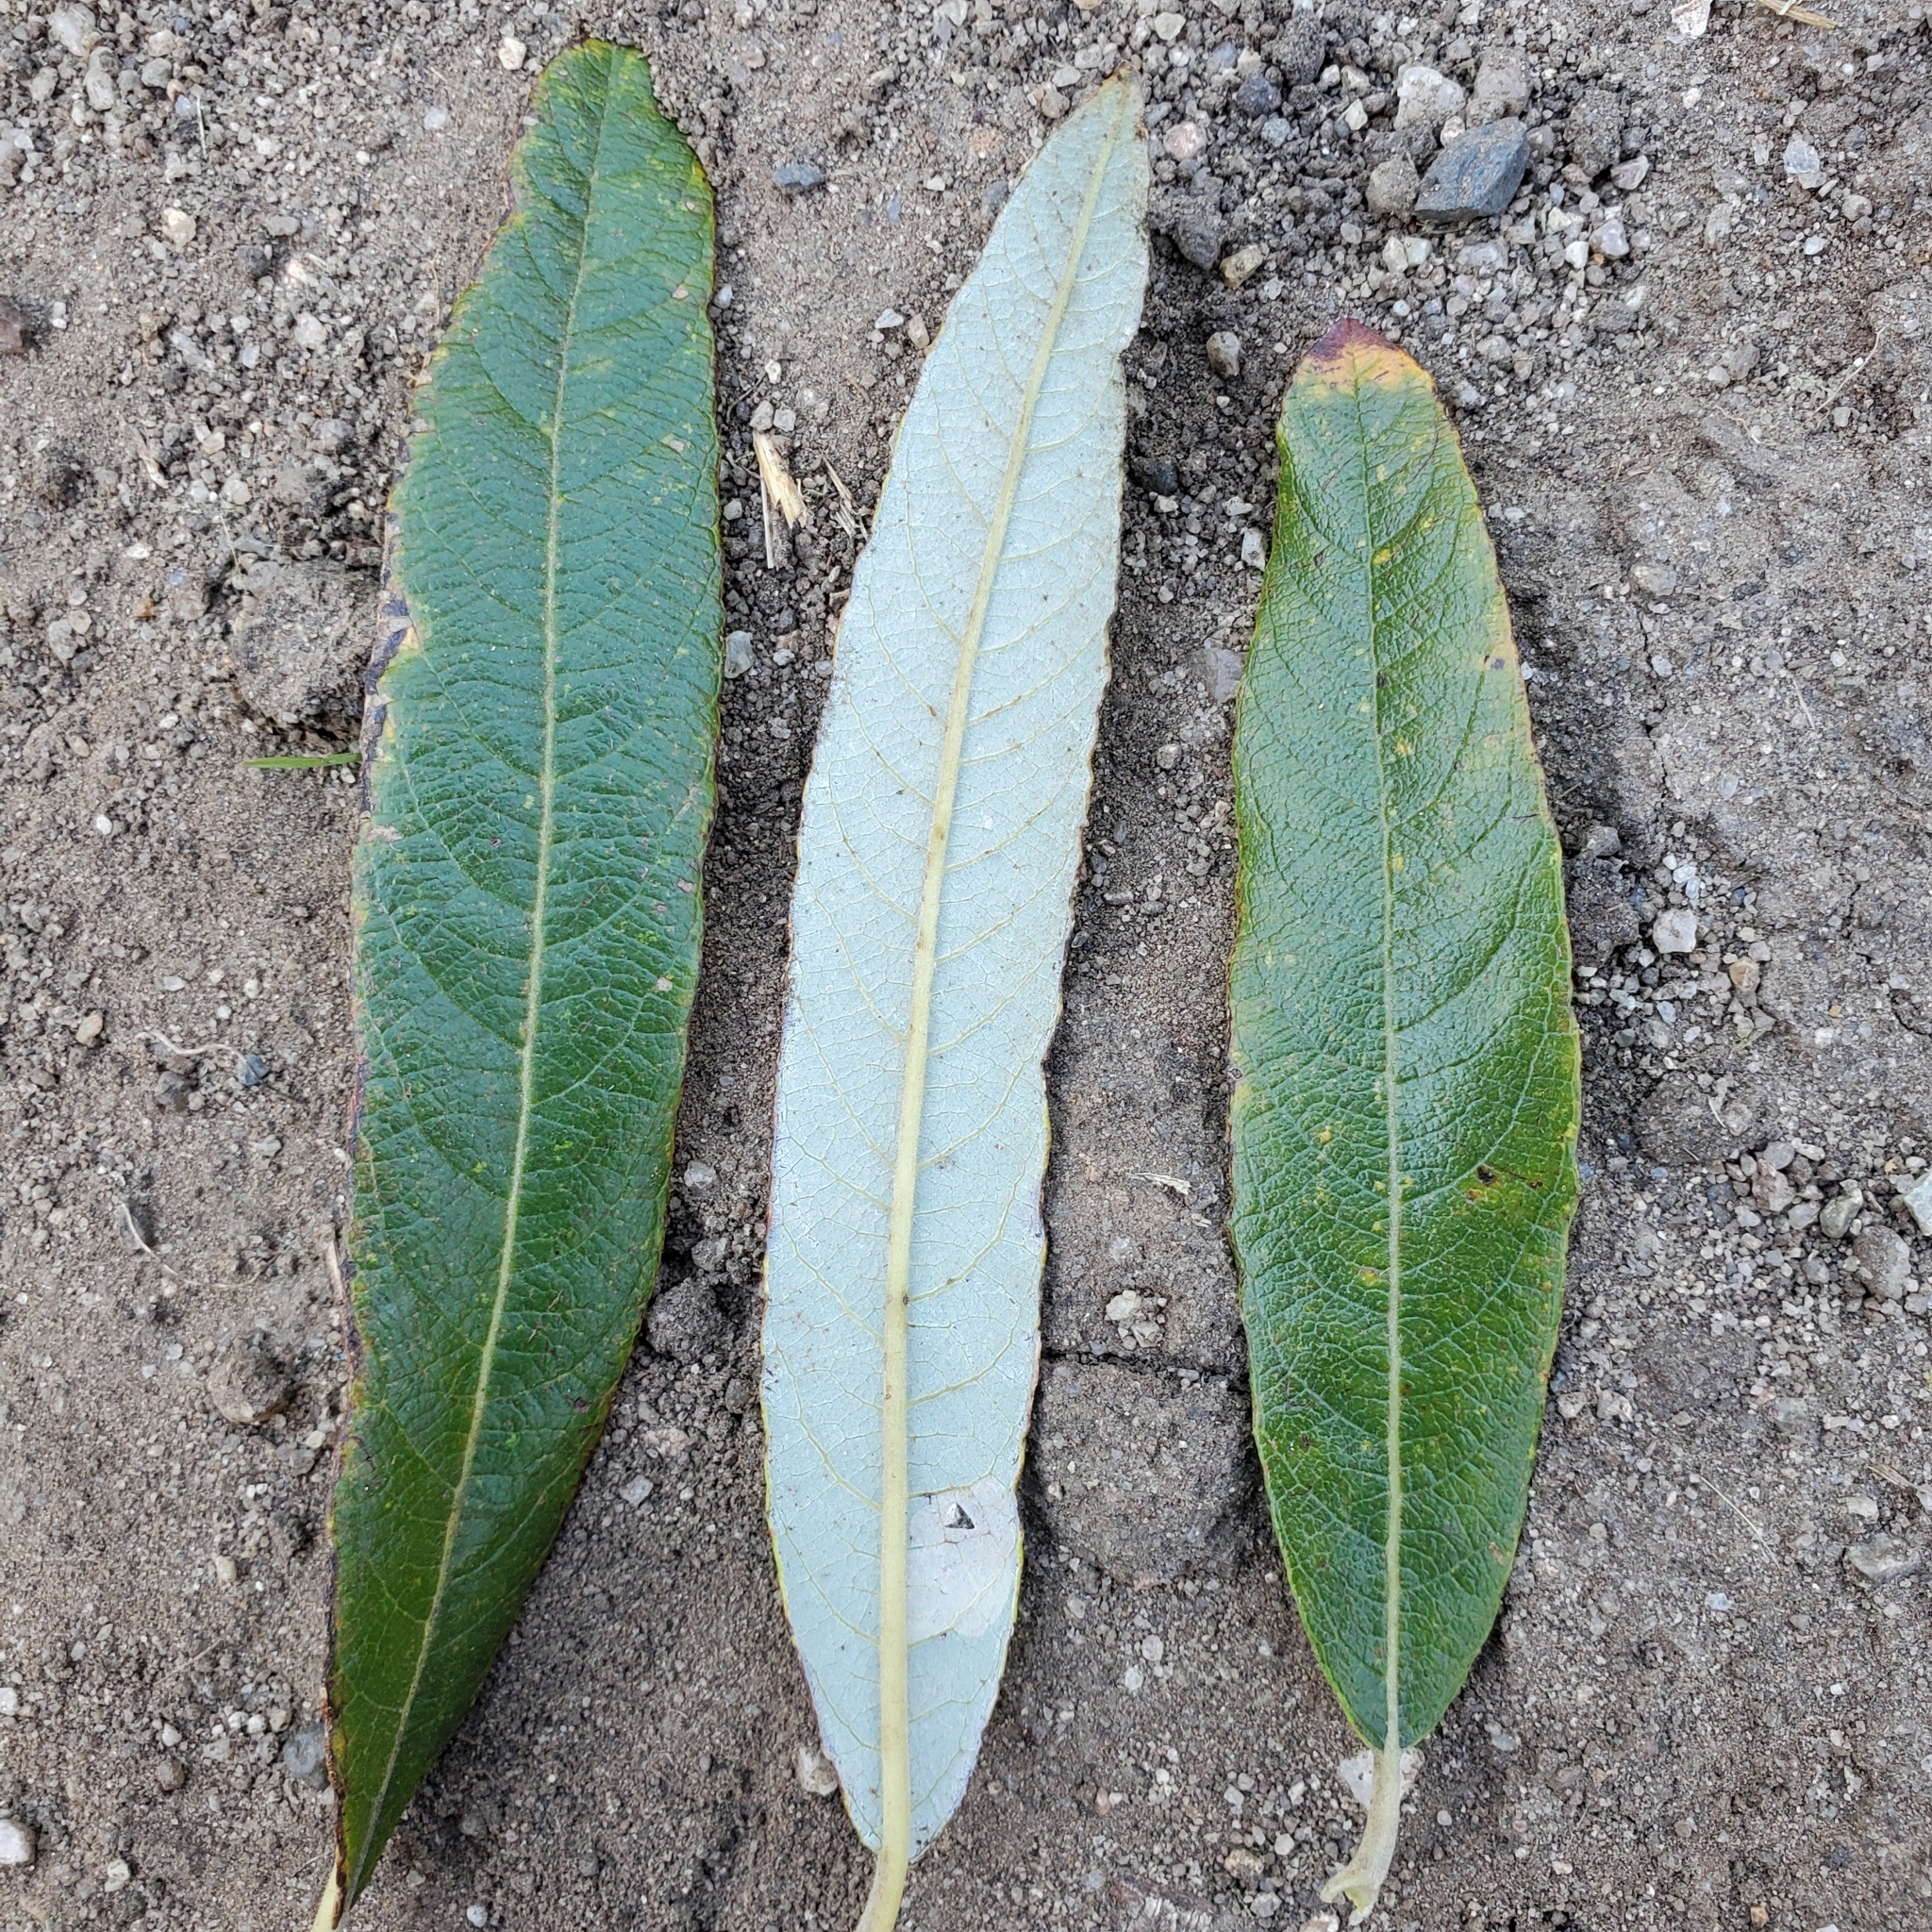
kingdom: Plantae
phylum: Tracheophyta
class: Magnoliopsida
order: Malpighiales
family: Salicaceae
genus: Salix
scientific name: Salix lasiolepis
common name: Arroyo willow
